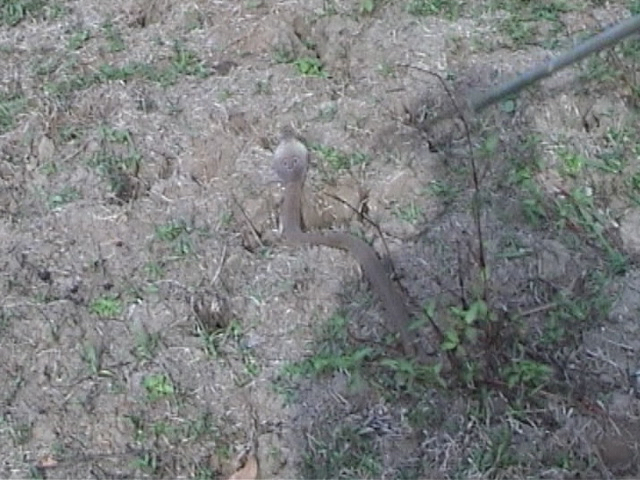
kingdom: Animalia
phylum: Chordata
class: Squamata
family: Elapidae
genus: Naja
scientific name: Naja naja
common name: Indian cobra
